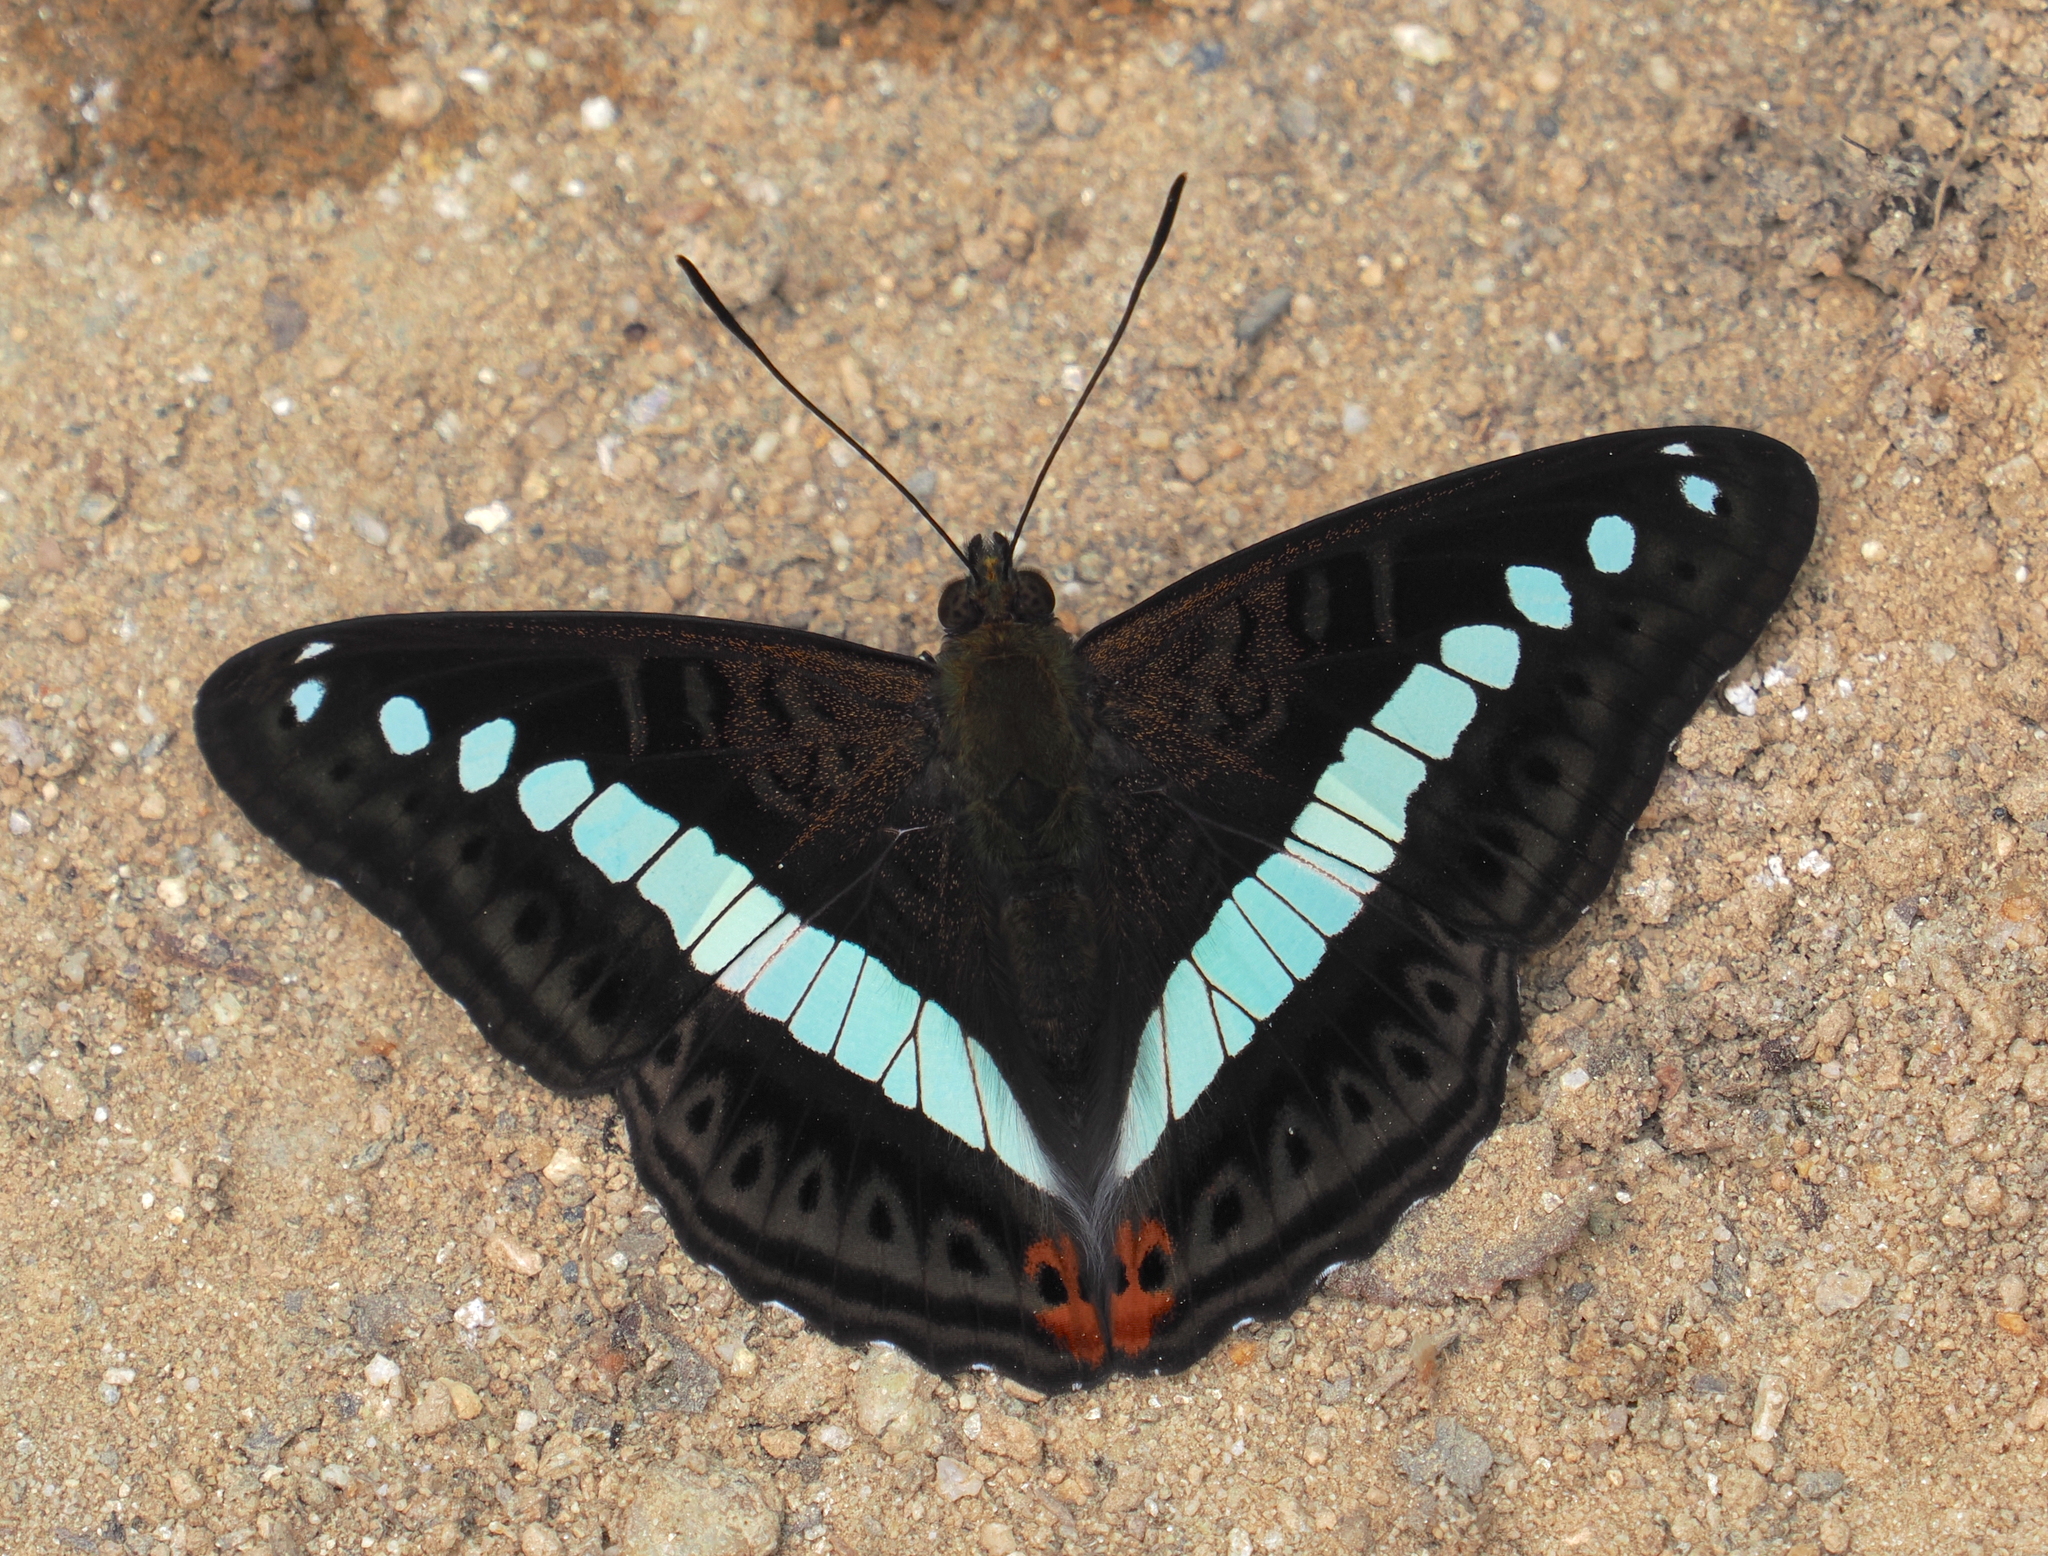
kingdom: Animalia
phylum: Arthropoda
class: Insecta
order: Lepidoptera
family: Nymphalidae
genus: Limenitis
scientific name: Limenitis Sumalia daraxa
